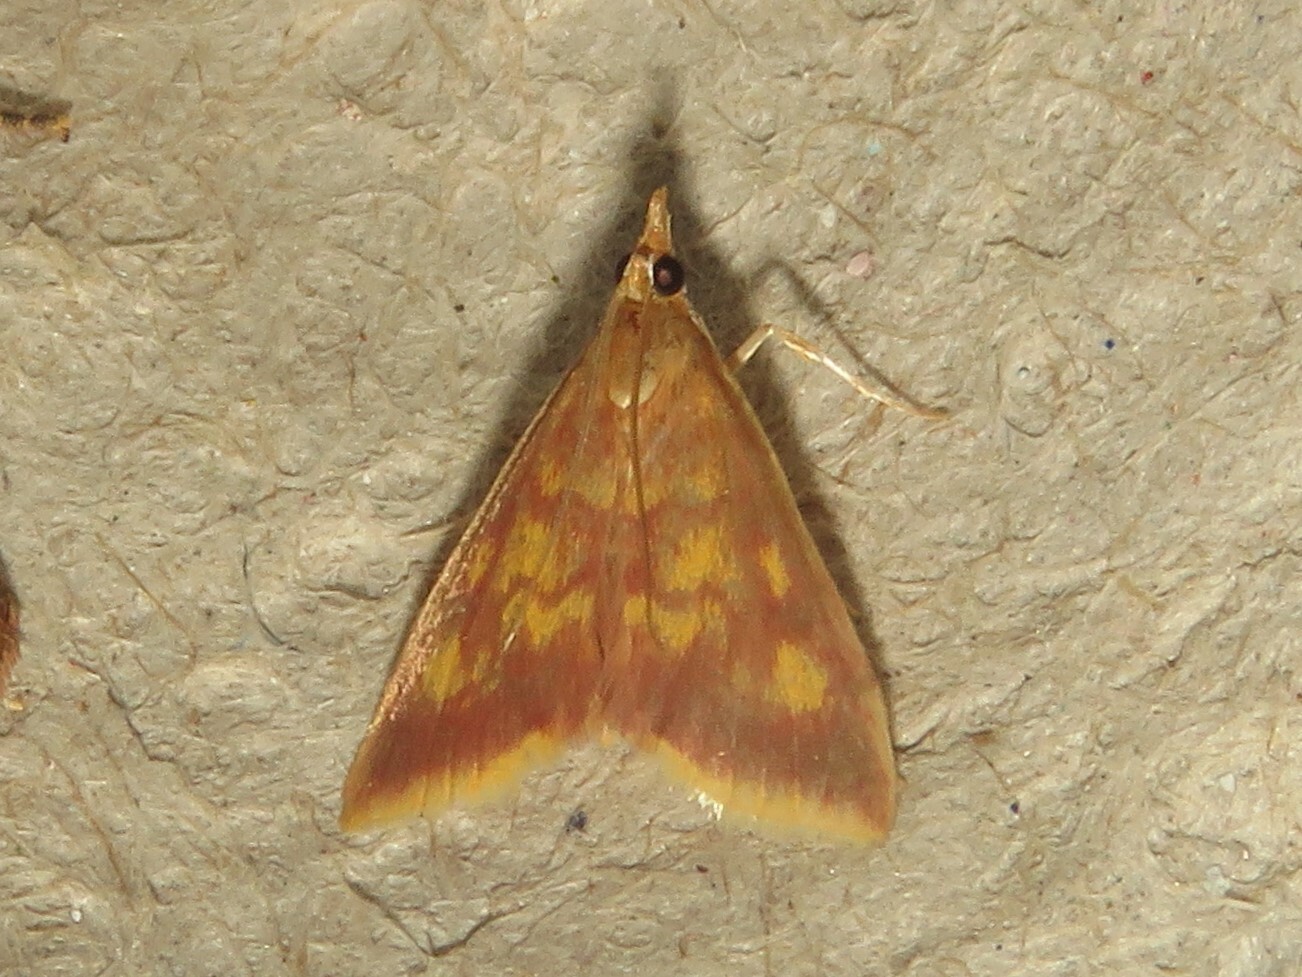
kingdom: Animalia
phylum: Arthropoda
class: Insecta
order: Lepidoptera
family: Crambidae
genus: Pyrausta
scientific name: Pyrausta acrionalis
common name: Mint-loving pyrausta moth
